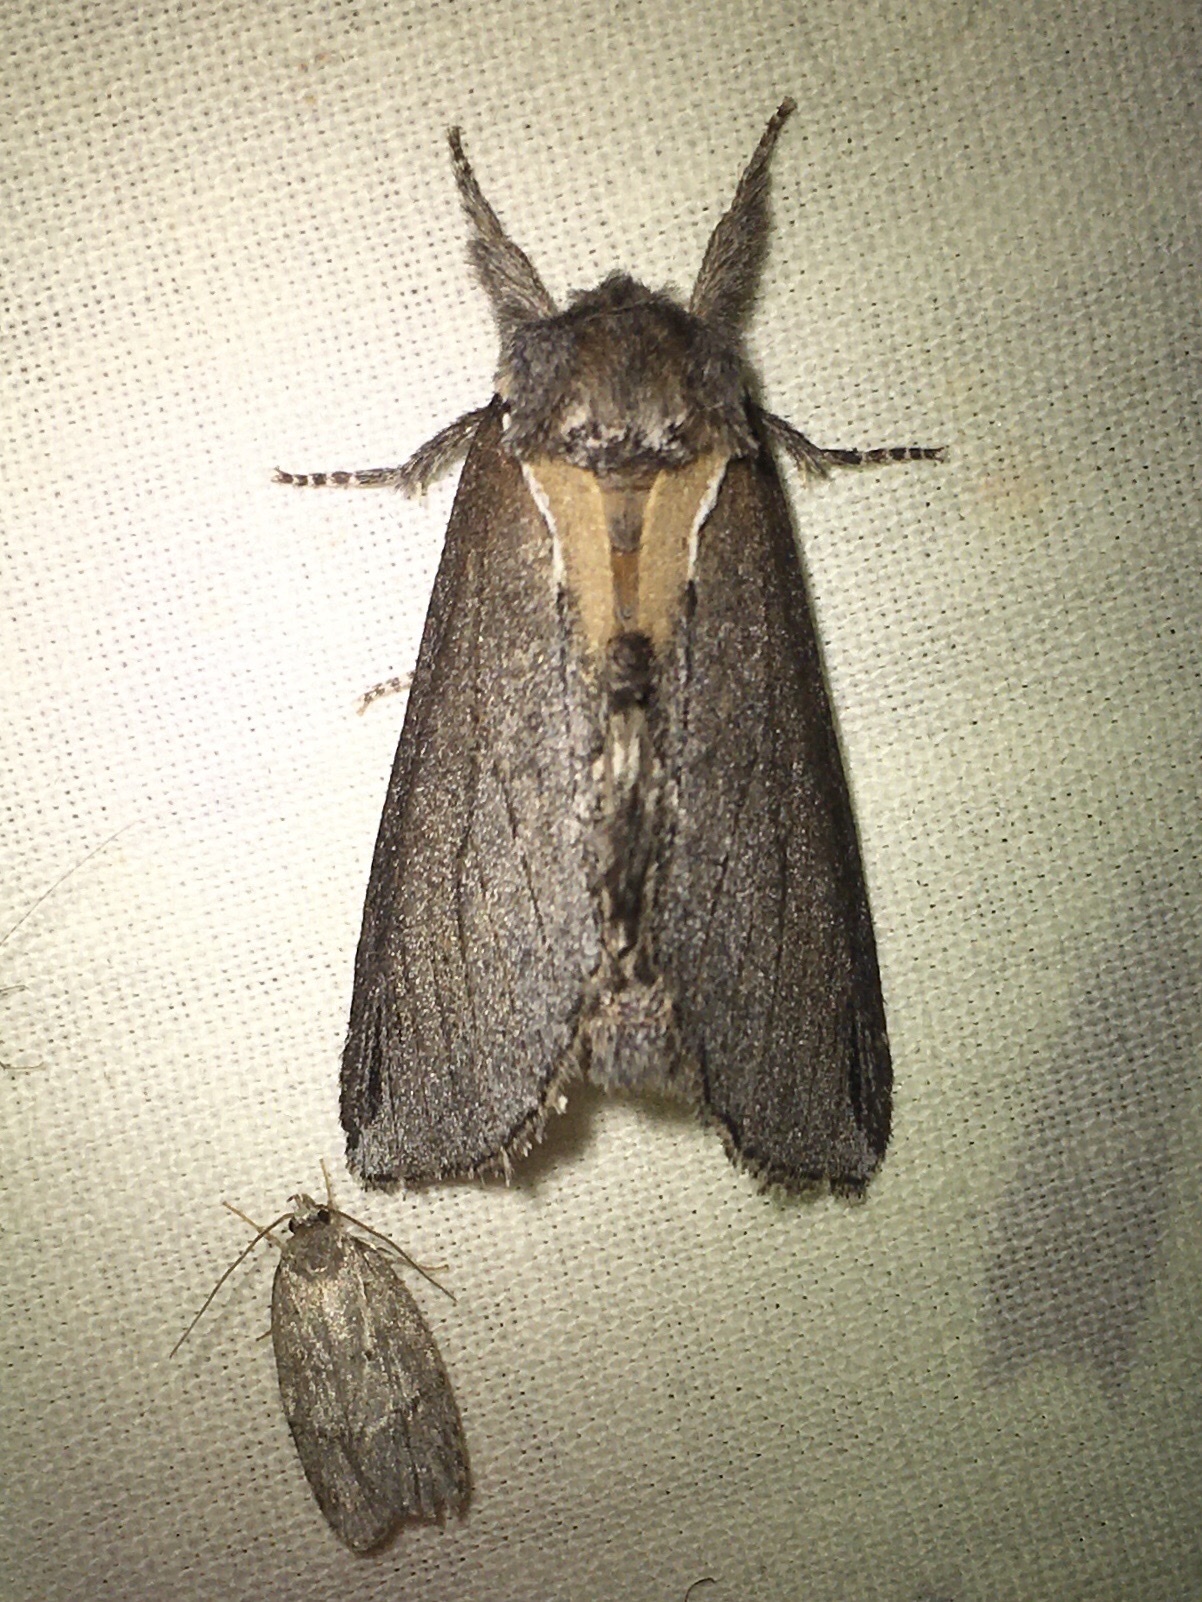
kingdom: Animalia
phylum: Arthropoda
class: Insecta
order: Lepidoptera
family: Notodontidae
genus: Pheosidea
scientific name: Pheosidea elegans
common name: Elegant prominent
